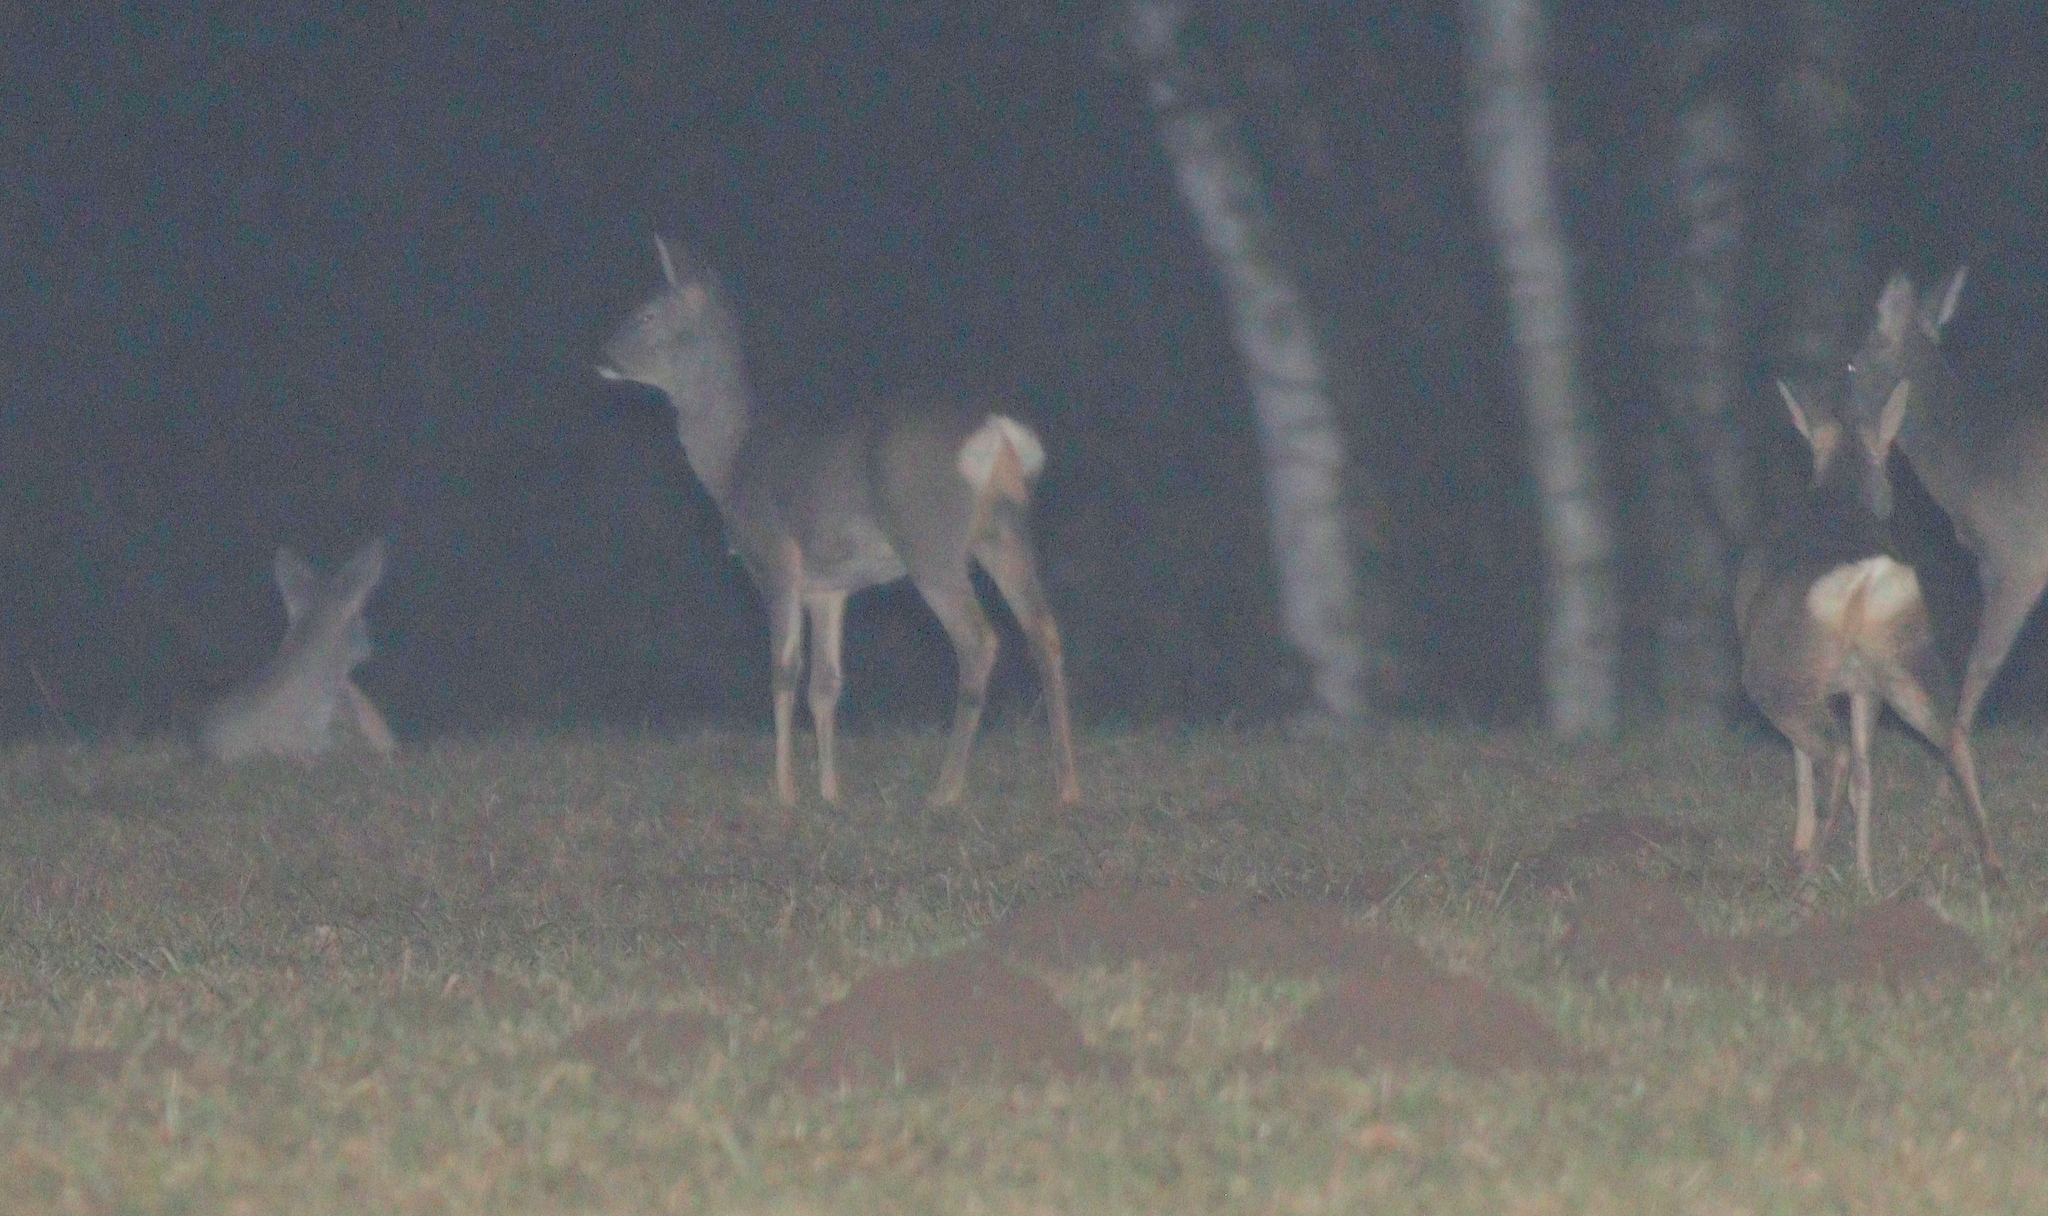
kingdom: Animalia
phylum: Chordata
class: Mammalia
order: Artiodactyla
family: Cervidae
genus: Capreolus
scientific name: Capreolus capreolus
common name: Western roe deer
